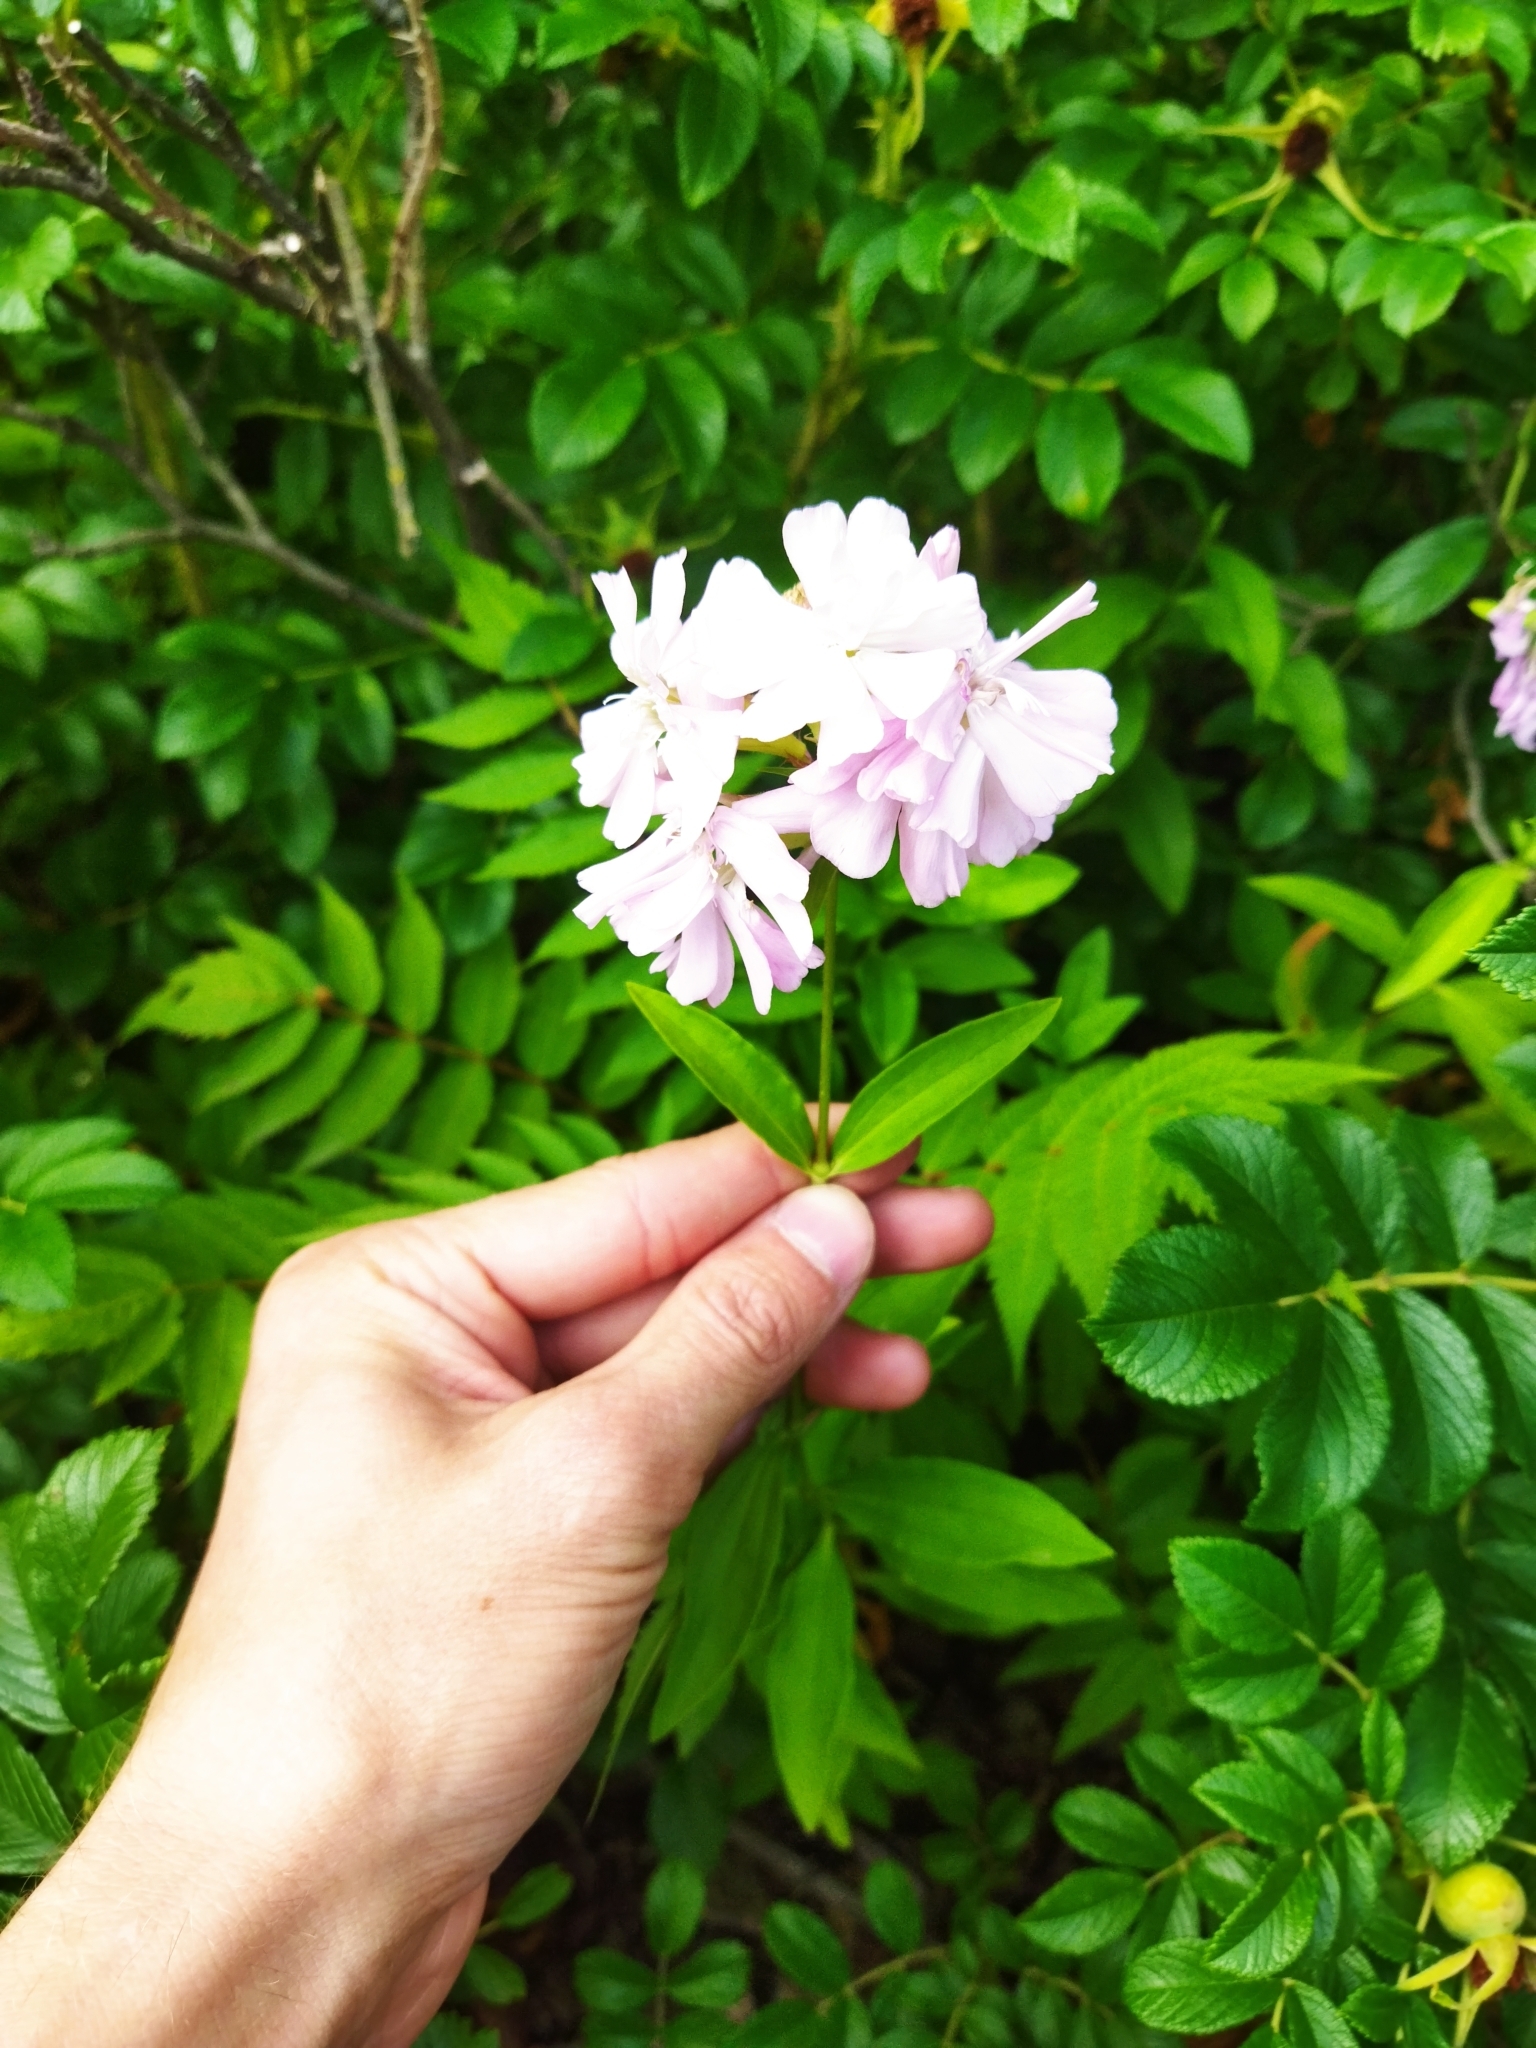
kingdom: Plantae
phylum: Tracheophyta
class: Magnoliopsida
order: Caryophyllales
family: Caryophyllaceae
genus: Saponaria
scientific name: Saponaria officinalis
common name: Soapwort
